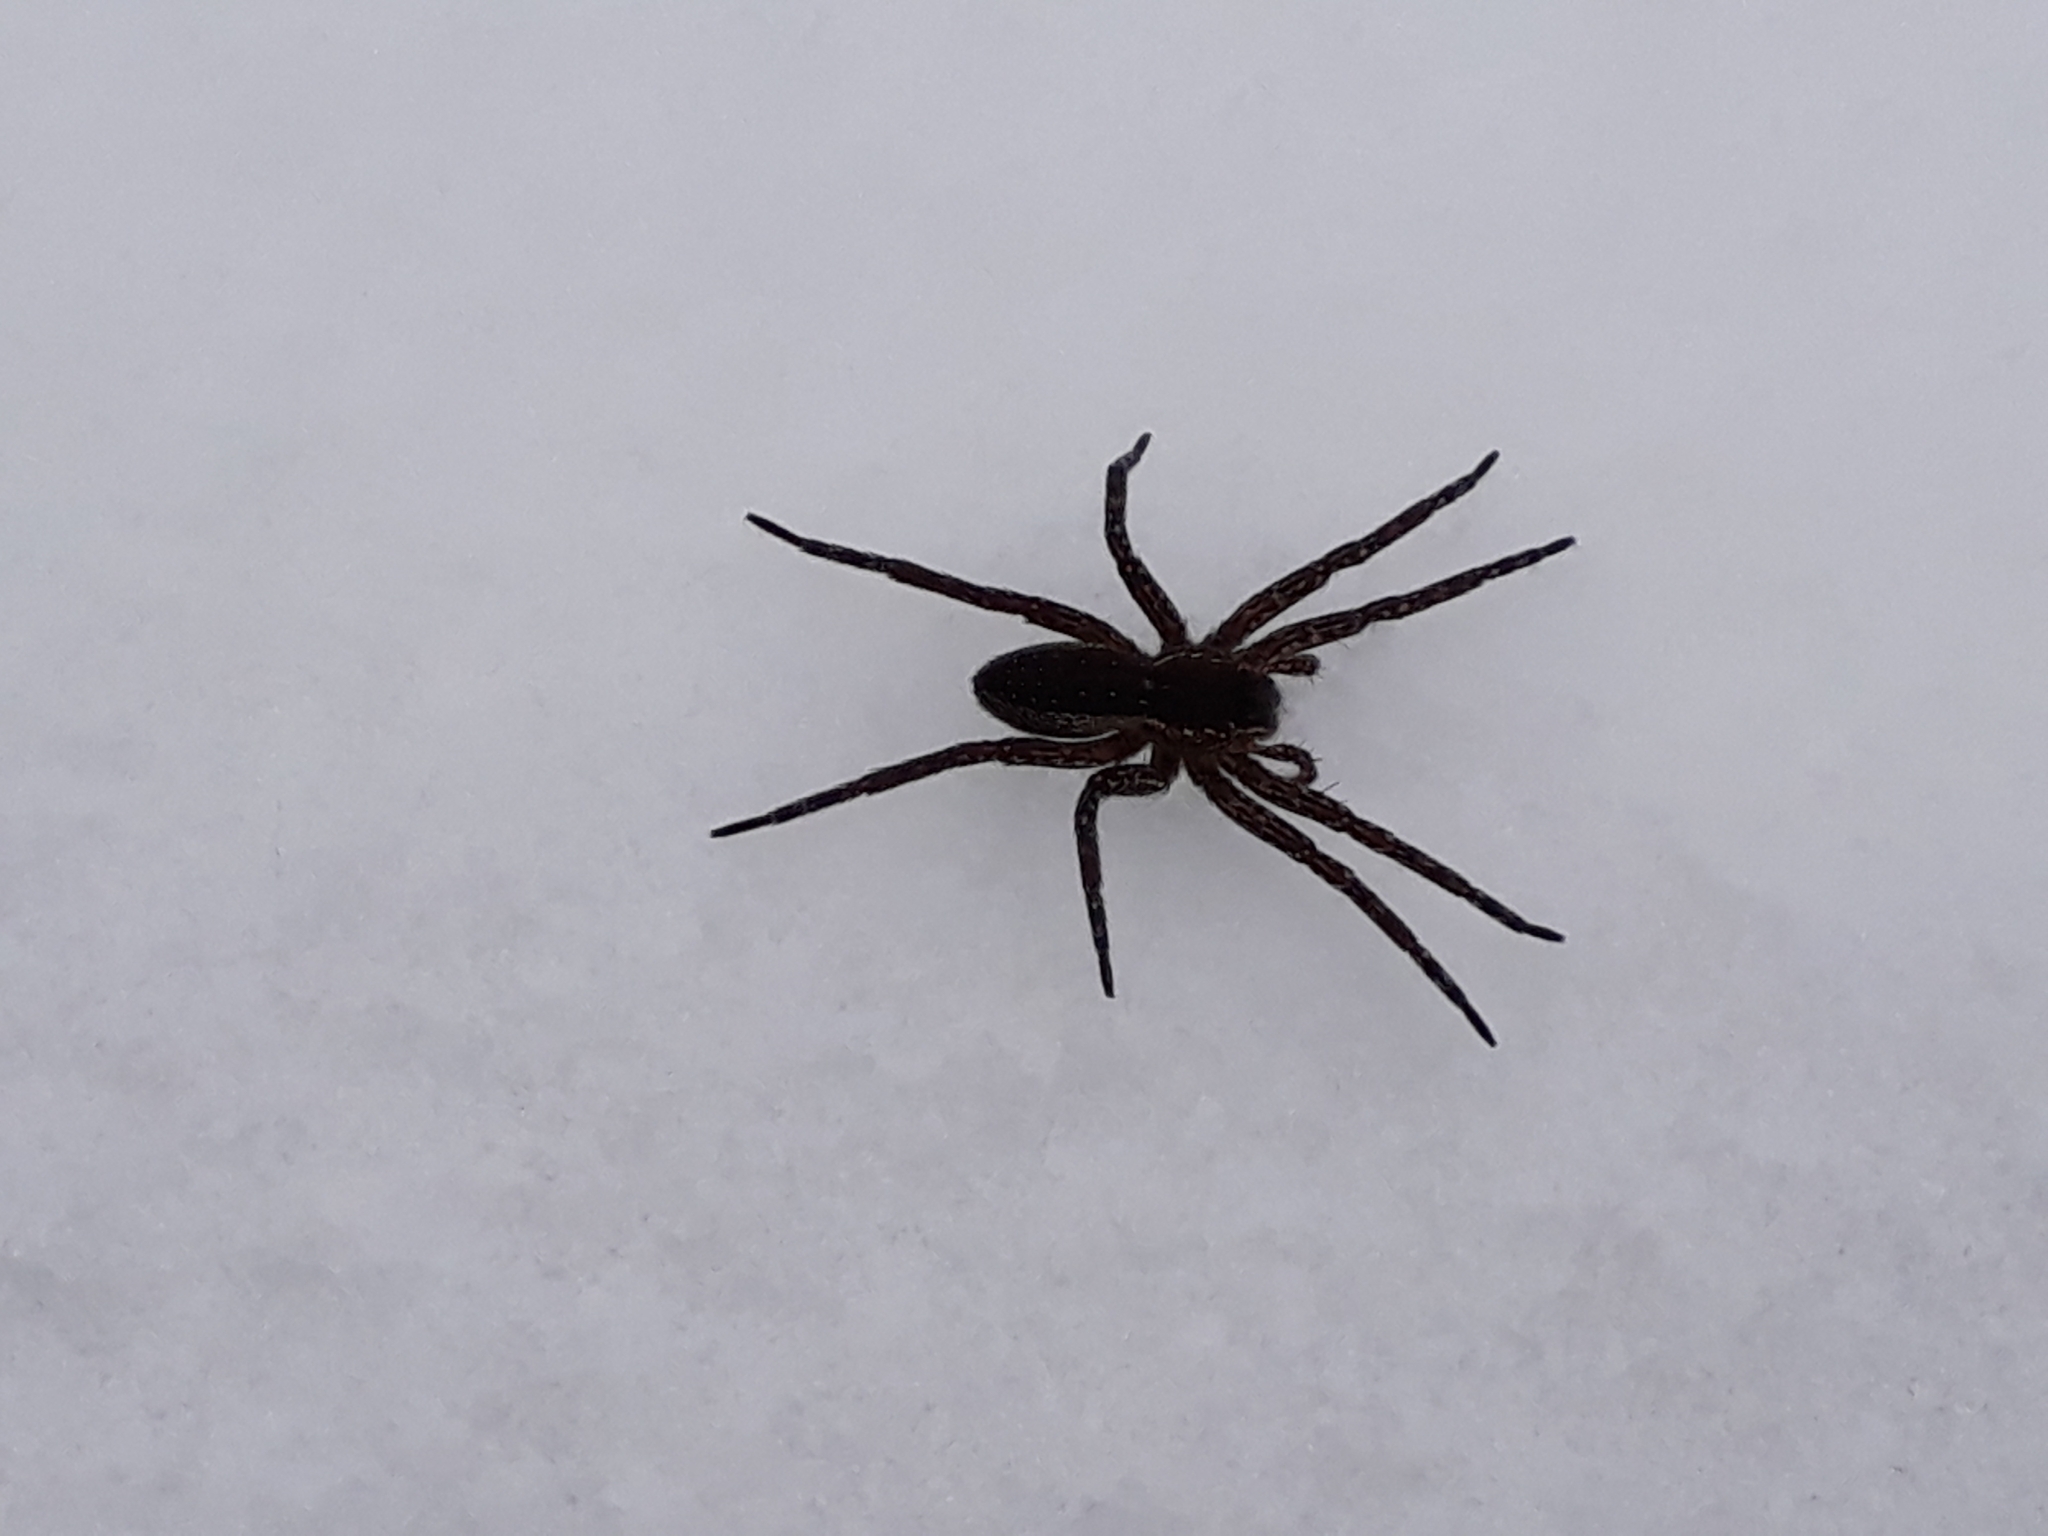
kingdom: Animalia
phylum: Arthropoda
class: Arachnida
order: Araneae
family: Pisauridae
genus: Dolomedes
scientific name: Dolomedes
